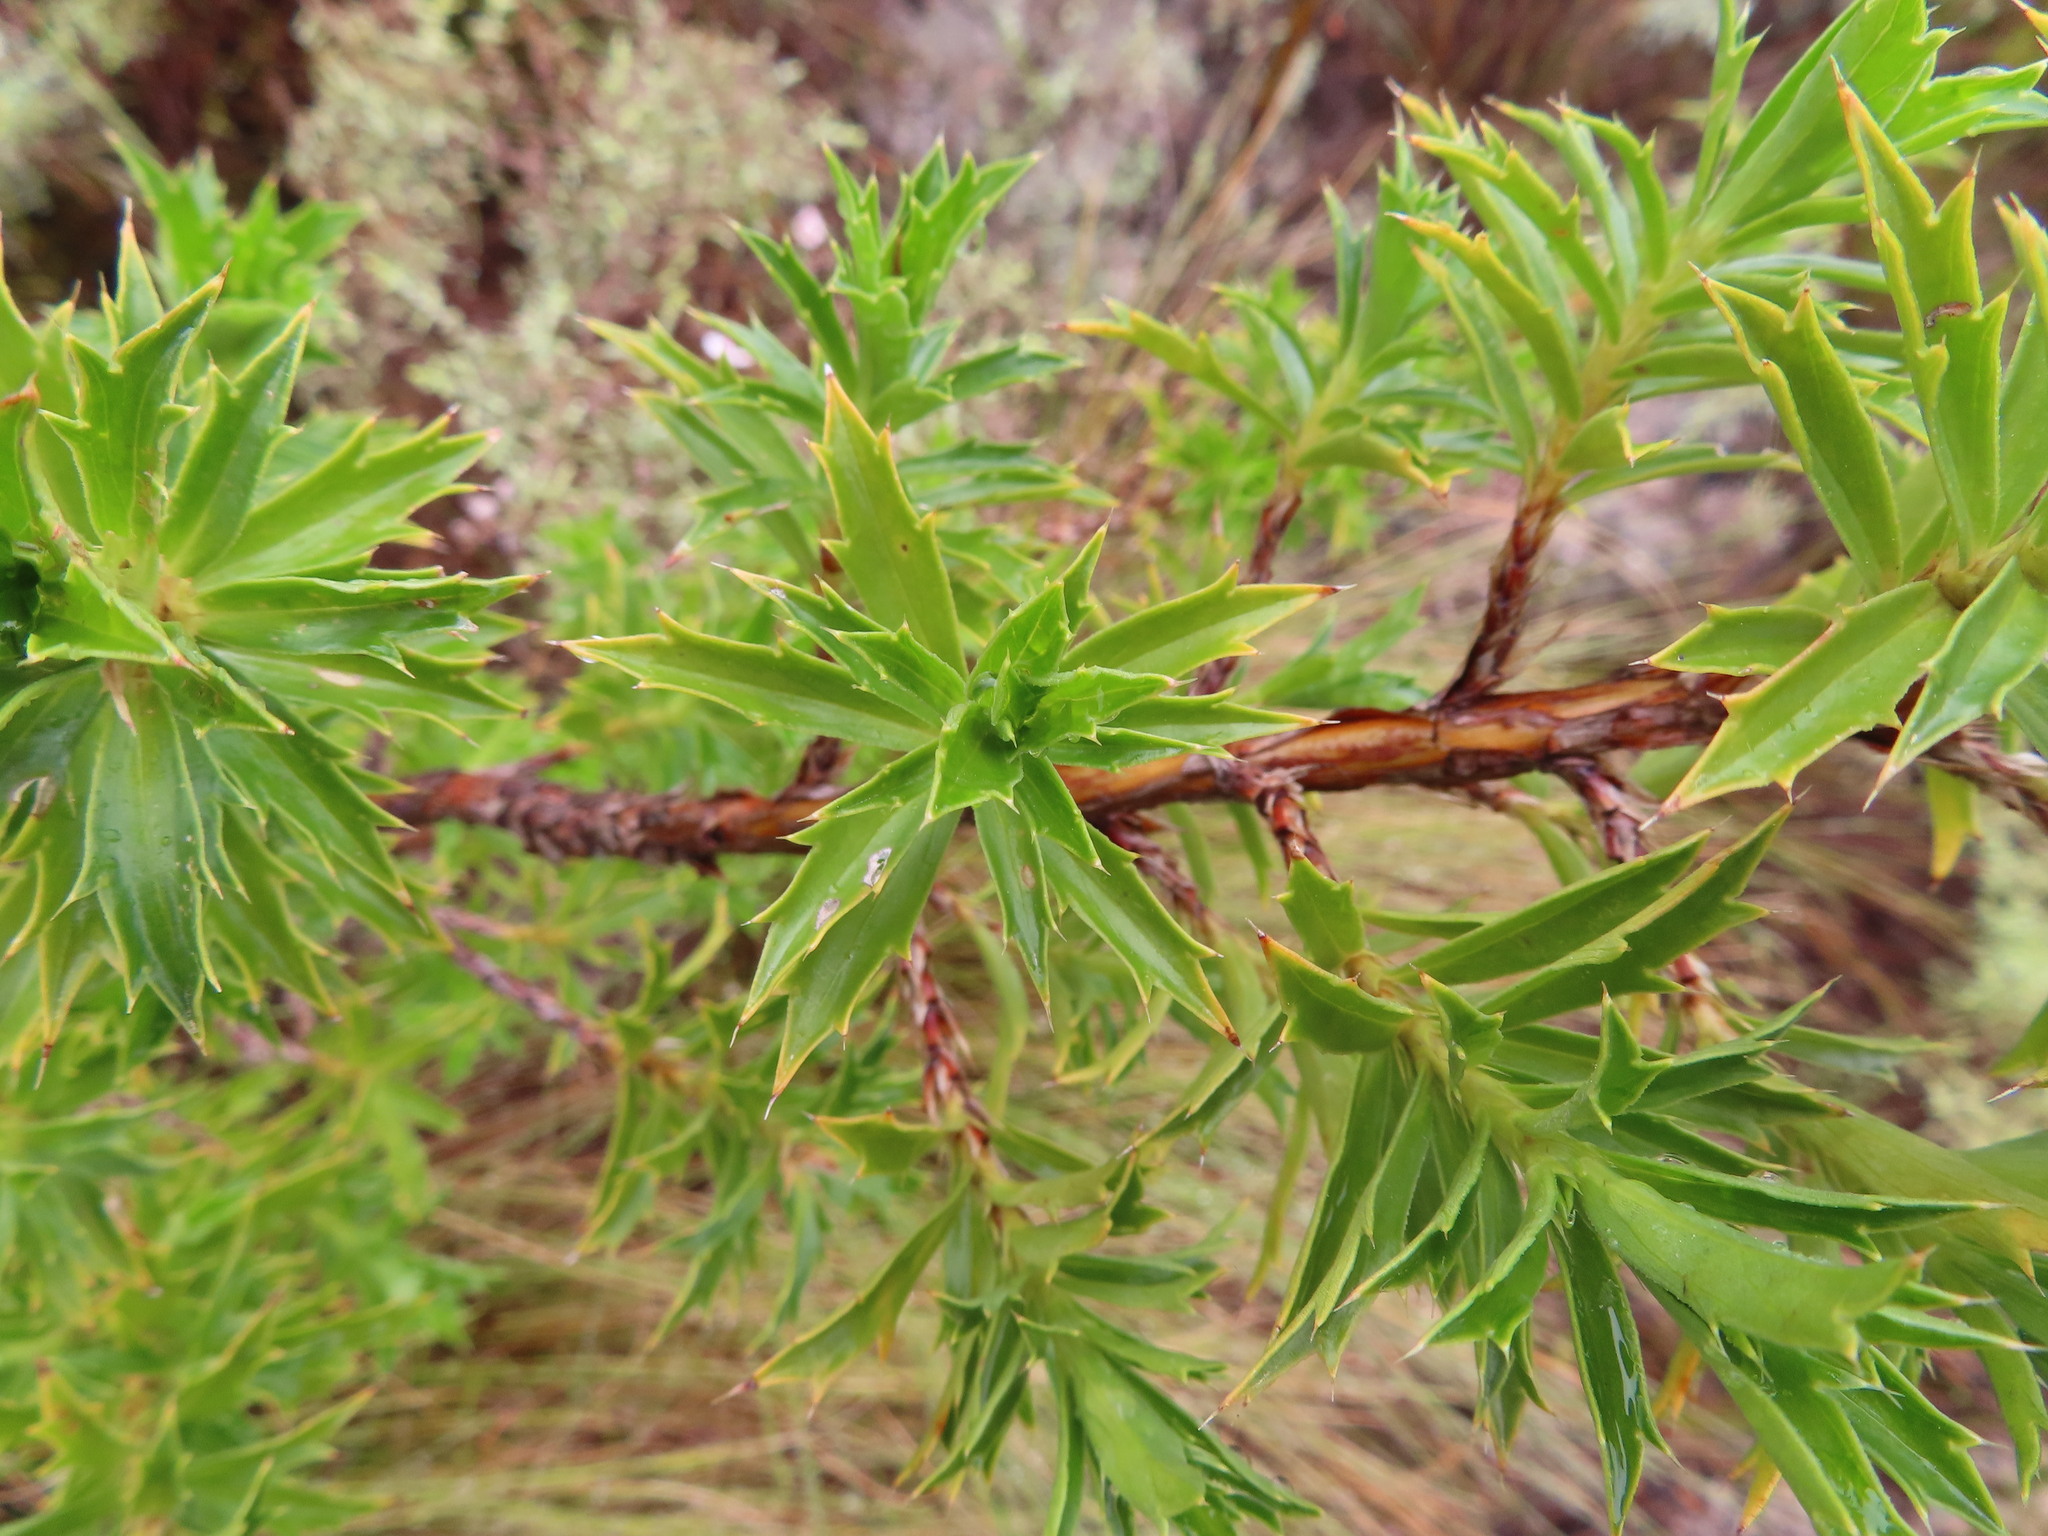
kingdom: Plantae
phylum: Tracheophyta
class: Magnoliopsida
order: Rosales
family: Rosaceae
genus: Cliffortia
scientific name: Cliffortia phillipsii
